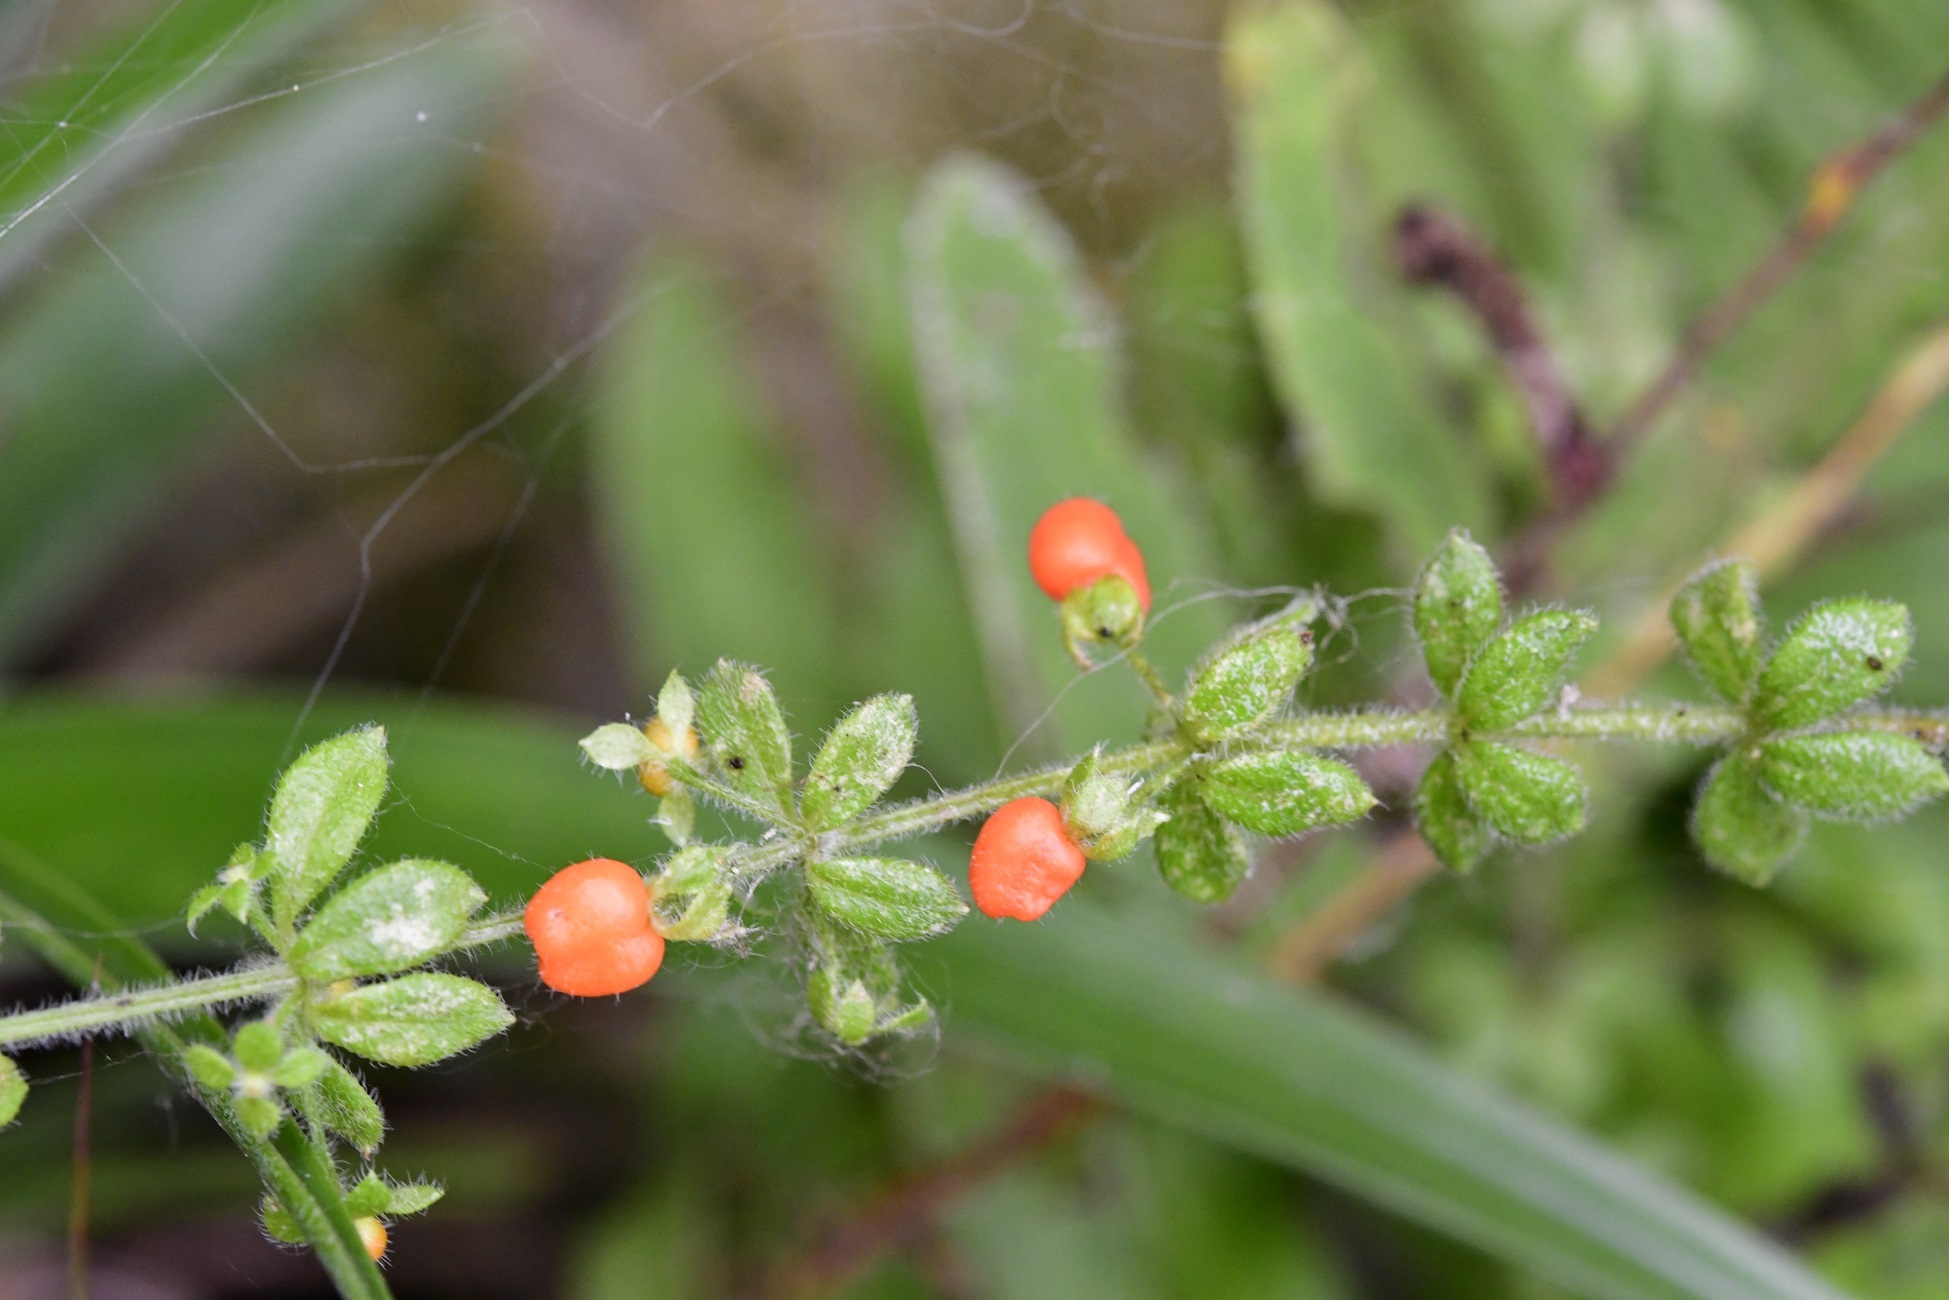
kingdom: Plantae
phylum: Tracheophyta
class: Magnoliopsida
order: Gentianales
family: Rubiaceae
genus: Galium
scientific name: Galium hypocarpium
